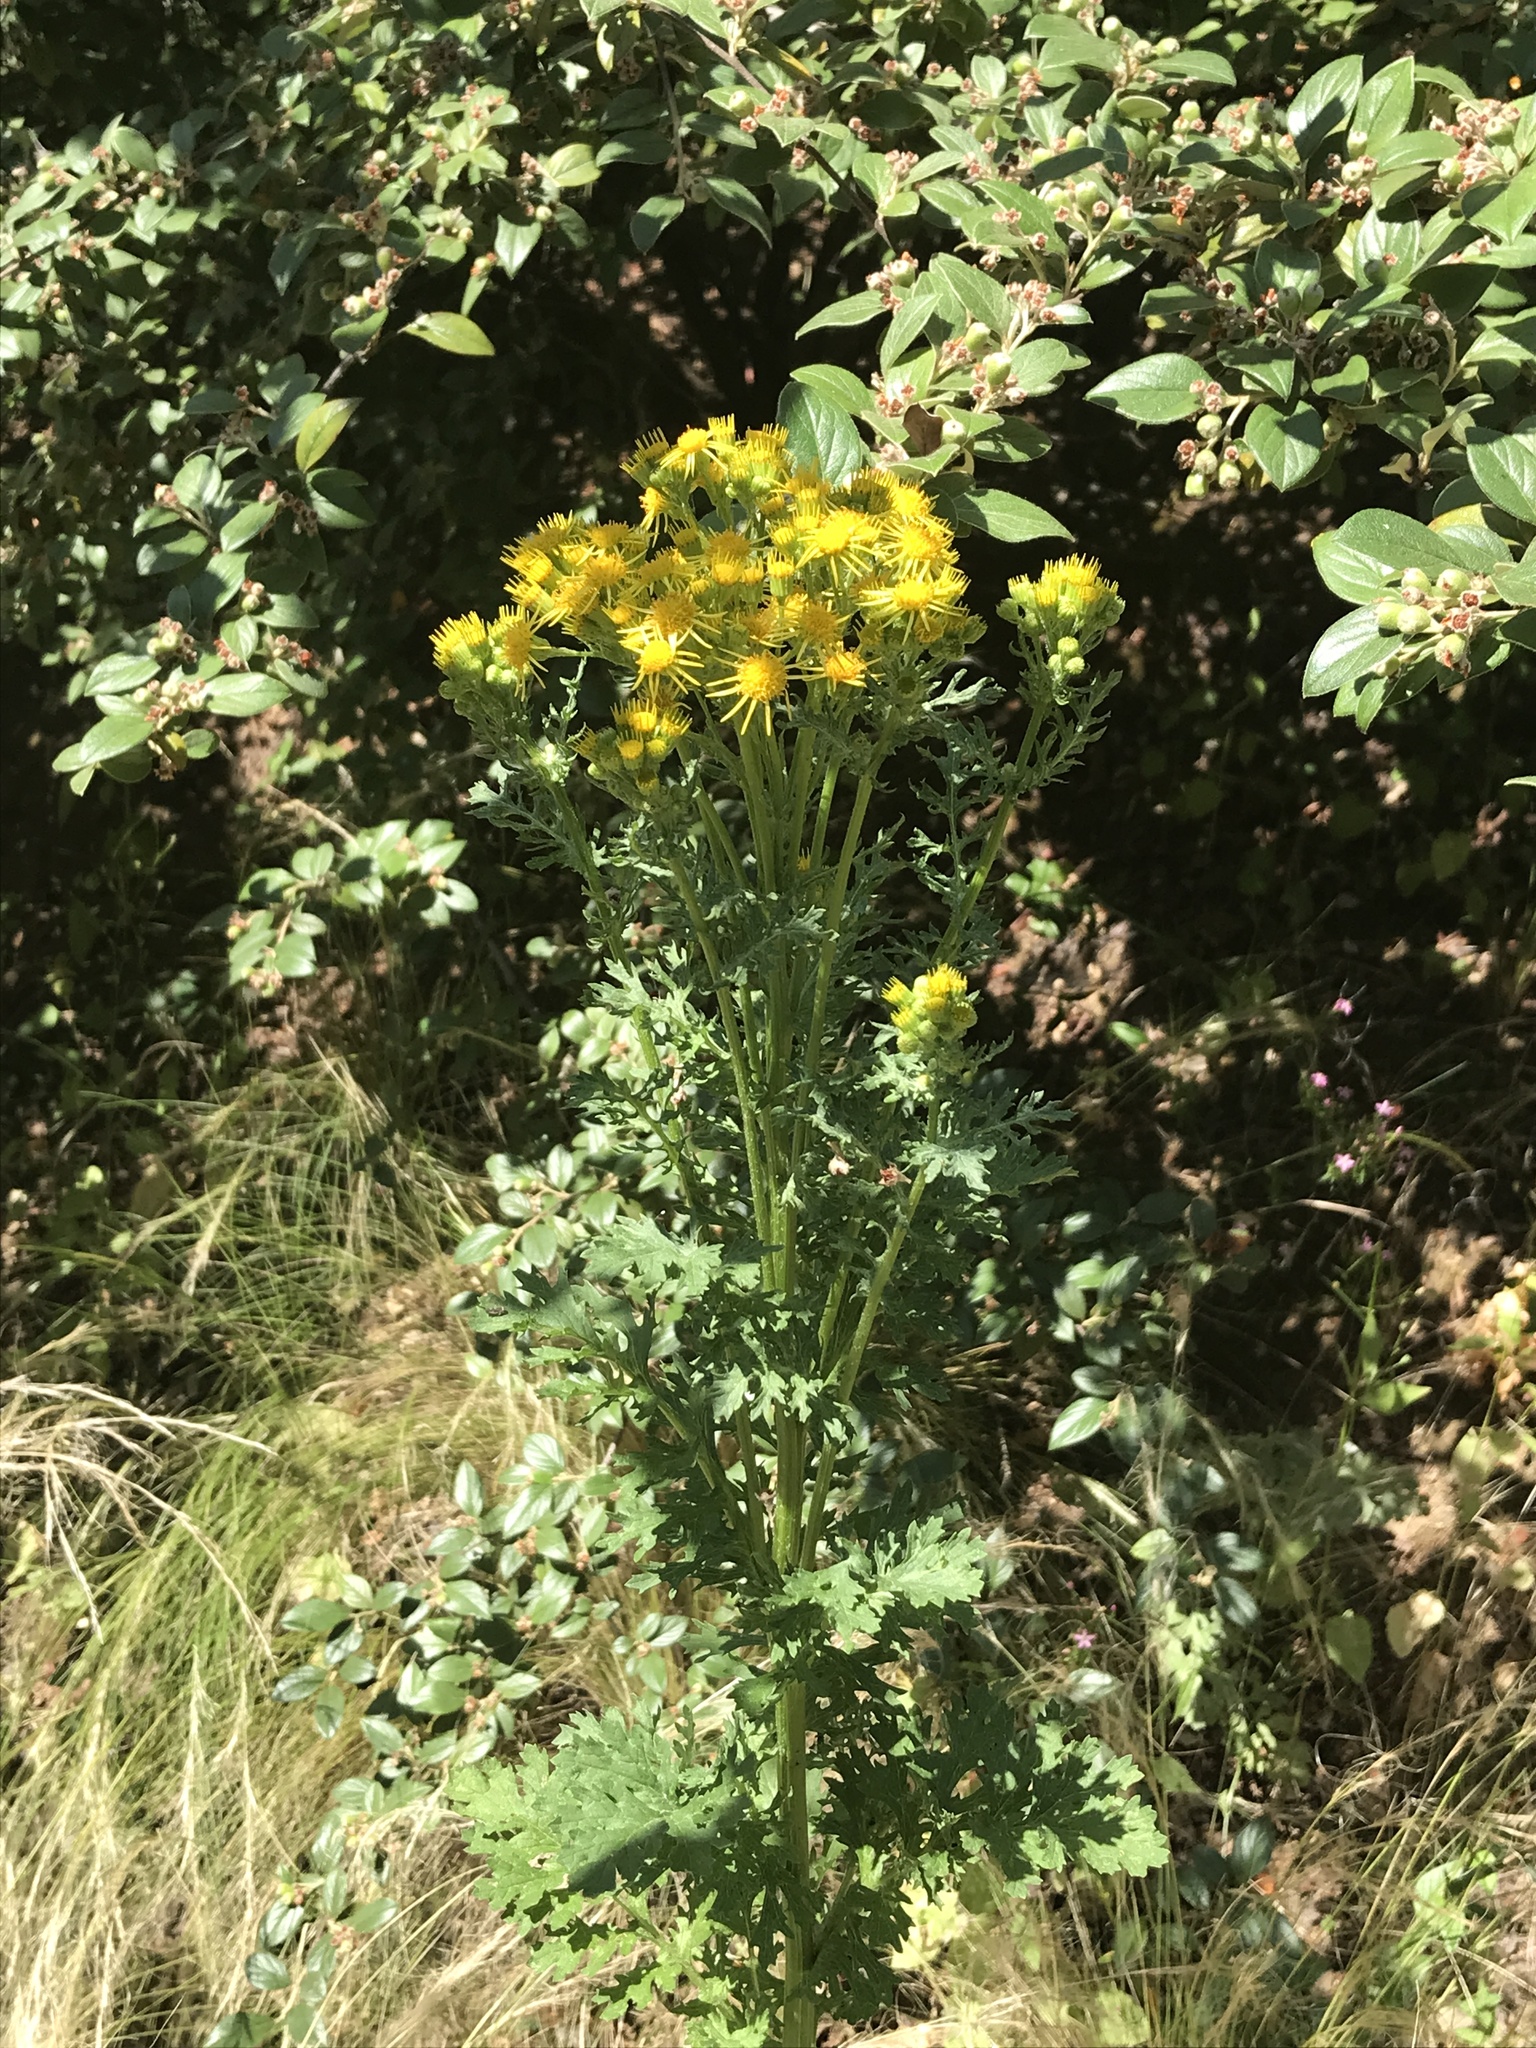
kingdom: Plantae
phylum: Tracheophyta
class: Magnoliopsida
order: Asterales
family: Asteraceae
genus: Jacobaea
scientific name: Jacobaea vulgaris
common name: Stinking willie
